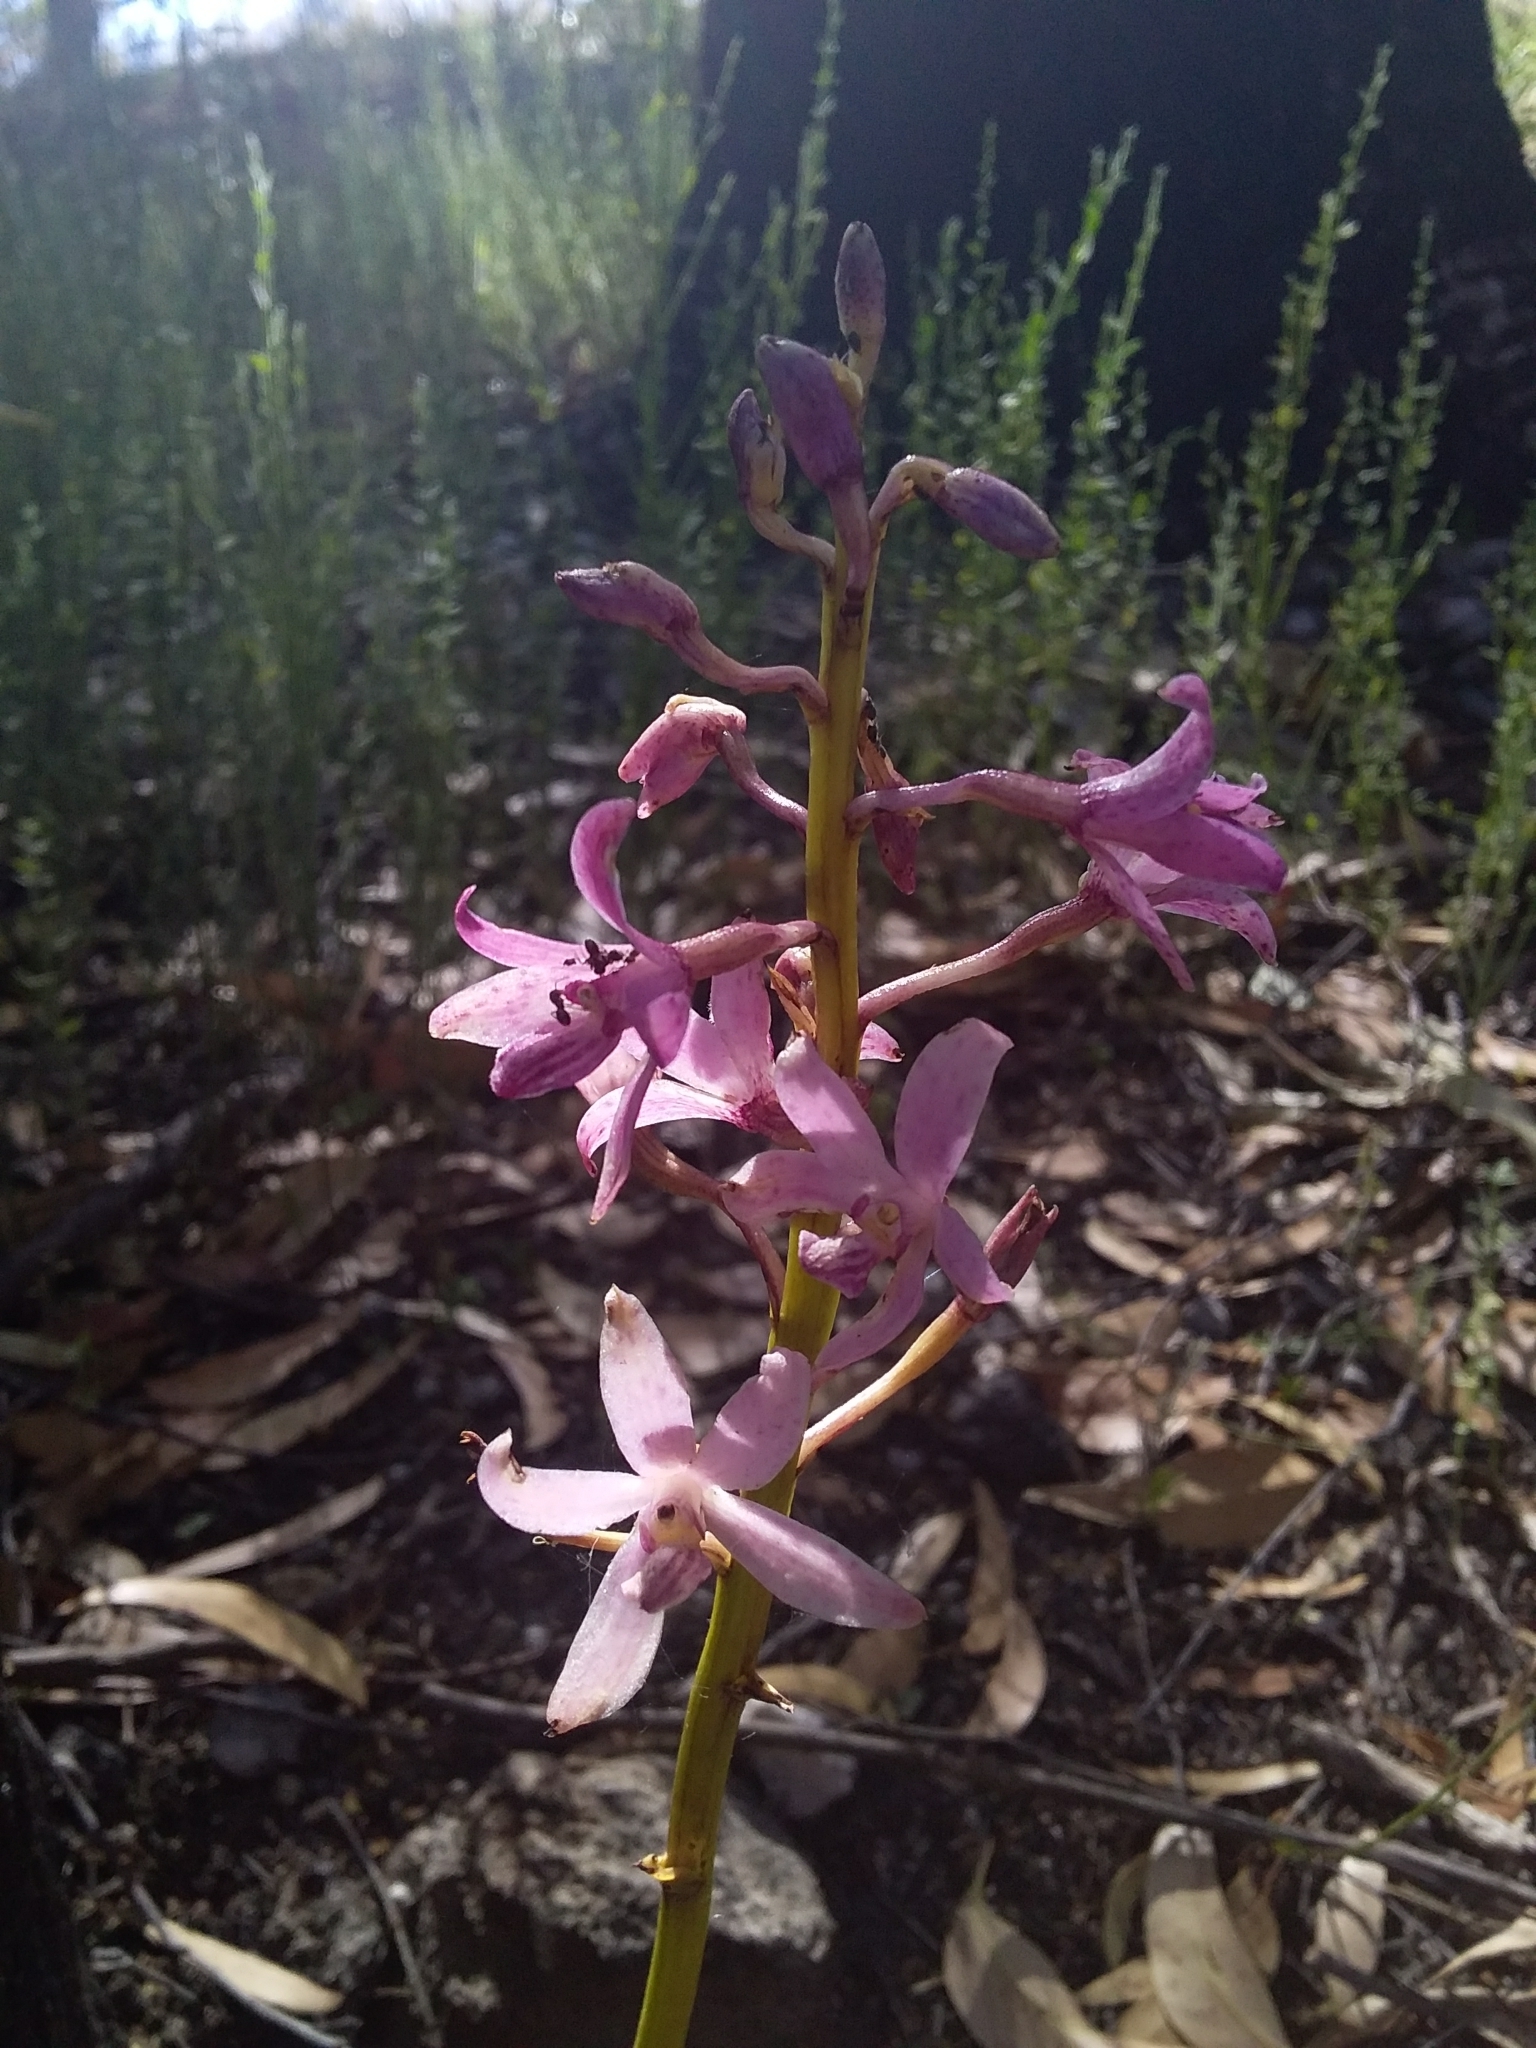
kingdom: Plantae
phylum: Tracheophyta
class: Liliopsida
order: Asparagales
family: Orchidaceae
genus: Dipodium
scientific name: Dipodium roseum
